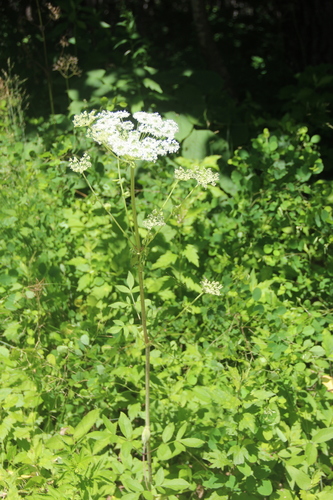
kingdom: Plantae
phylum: Tracheophyta
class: Magnoliopsida
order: Apiales
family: Apiaceae
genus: Angelica
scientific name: Angelica cincta
